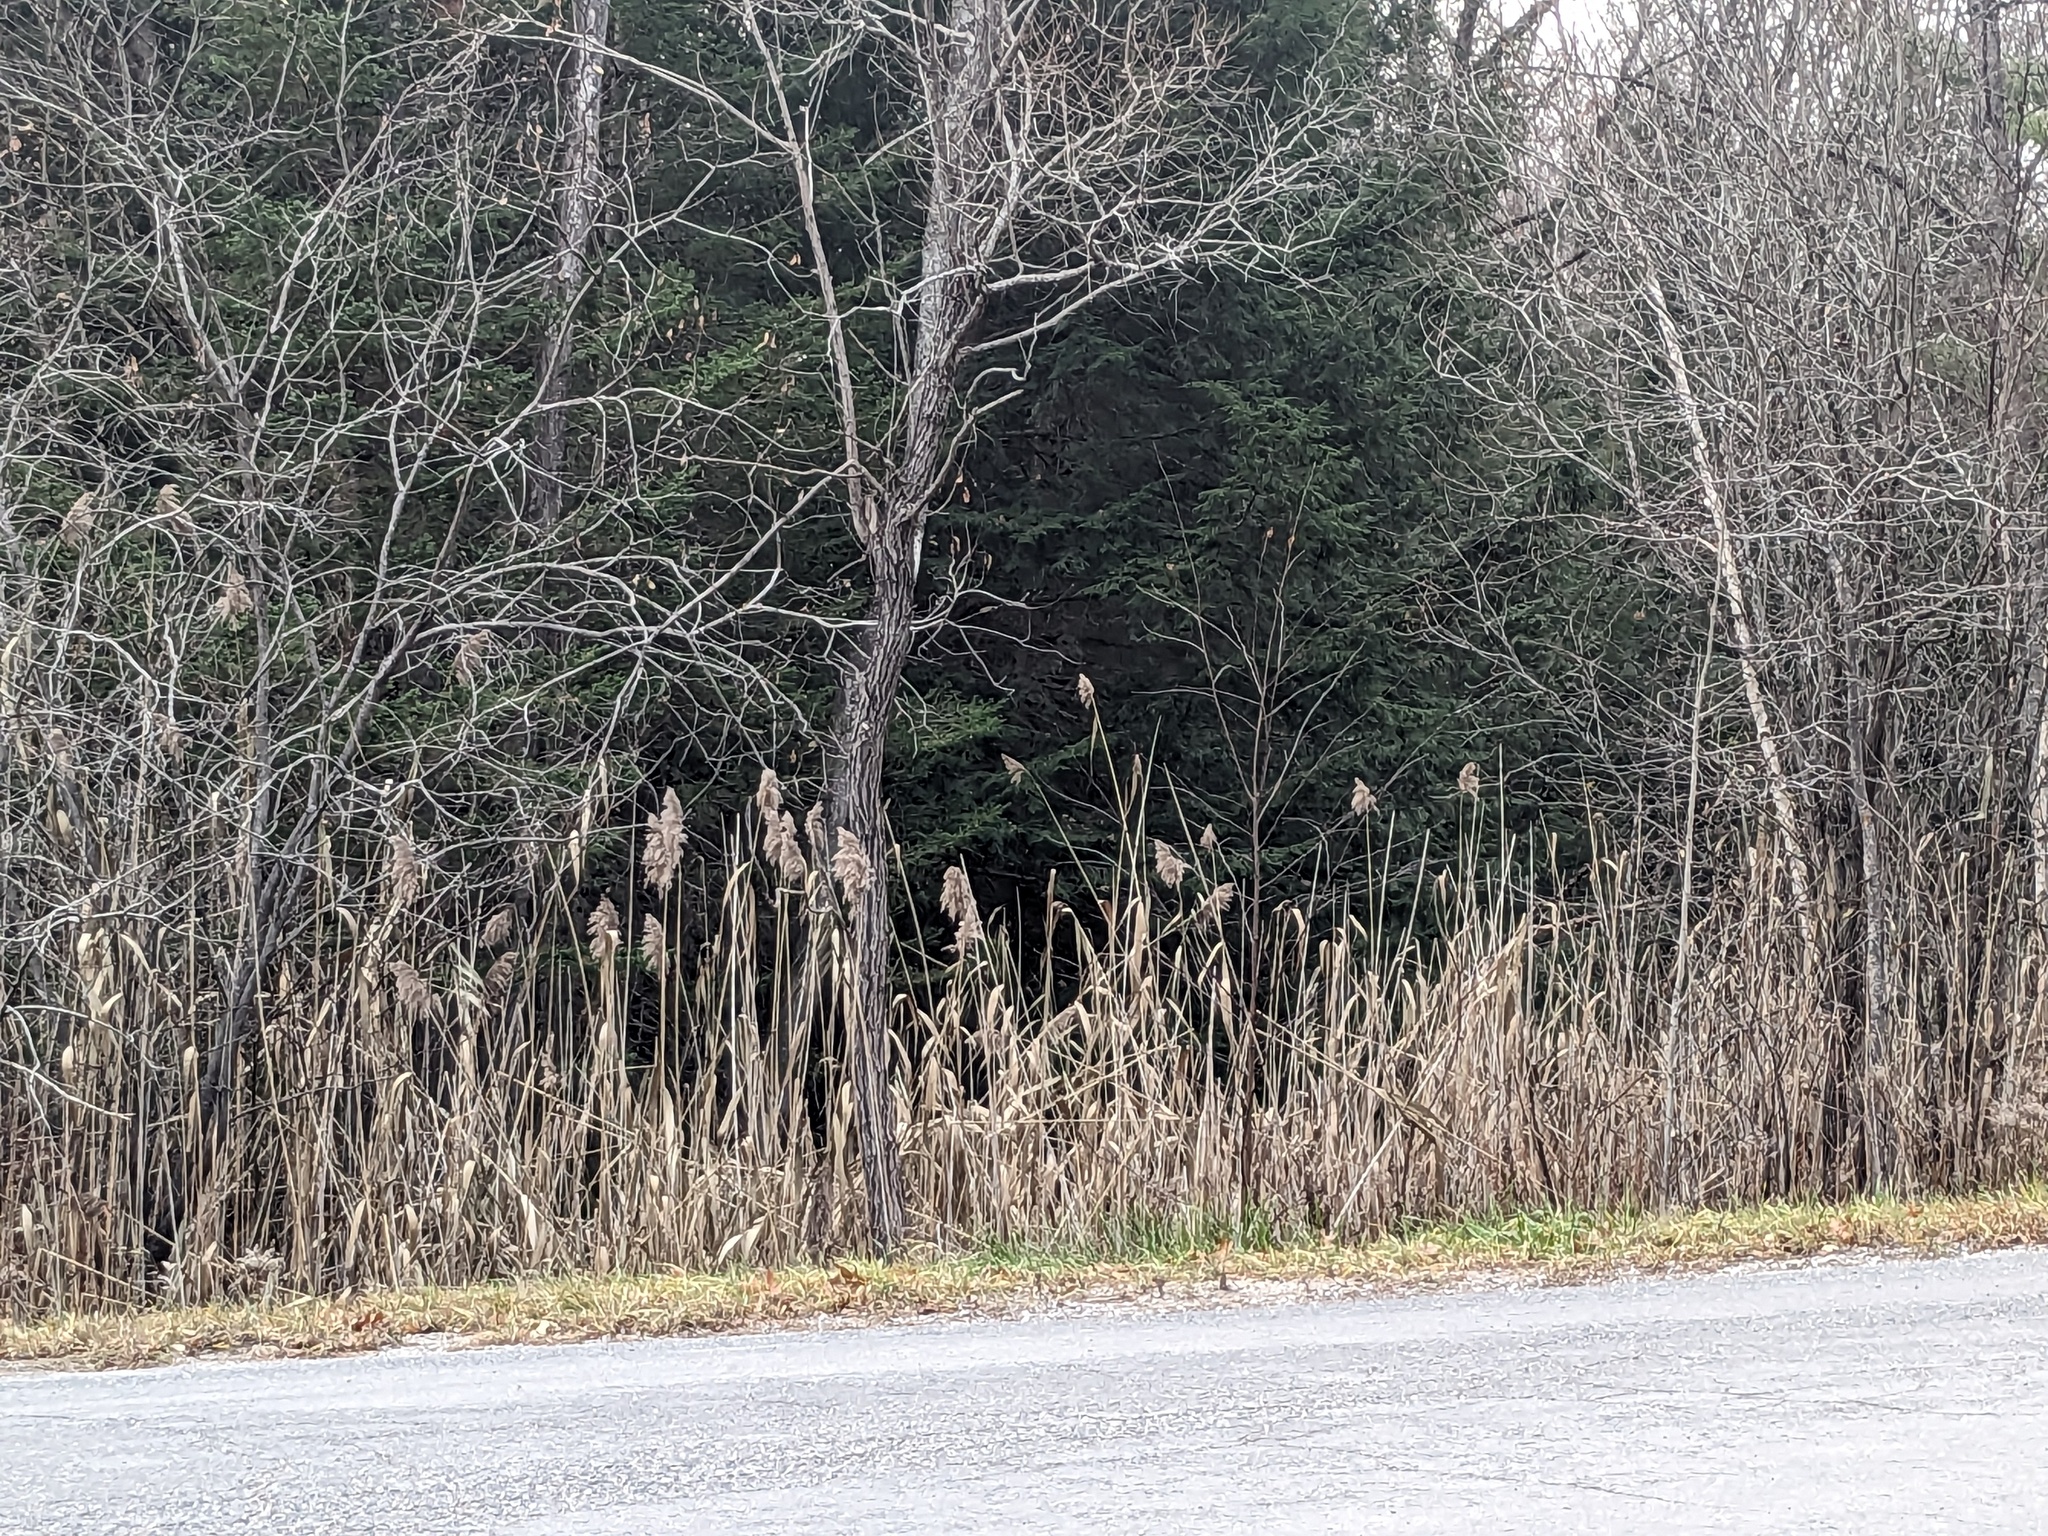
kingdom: Plantae
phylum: Tracheophyta
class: Liliopsida
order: Poales
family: Poaceae
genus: Phragmites
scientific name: Phragmites australis
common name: Common reed
